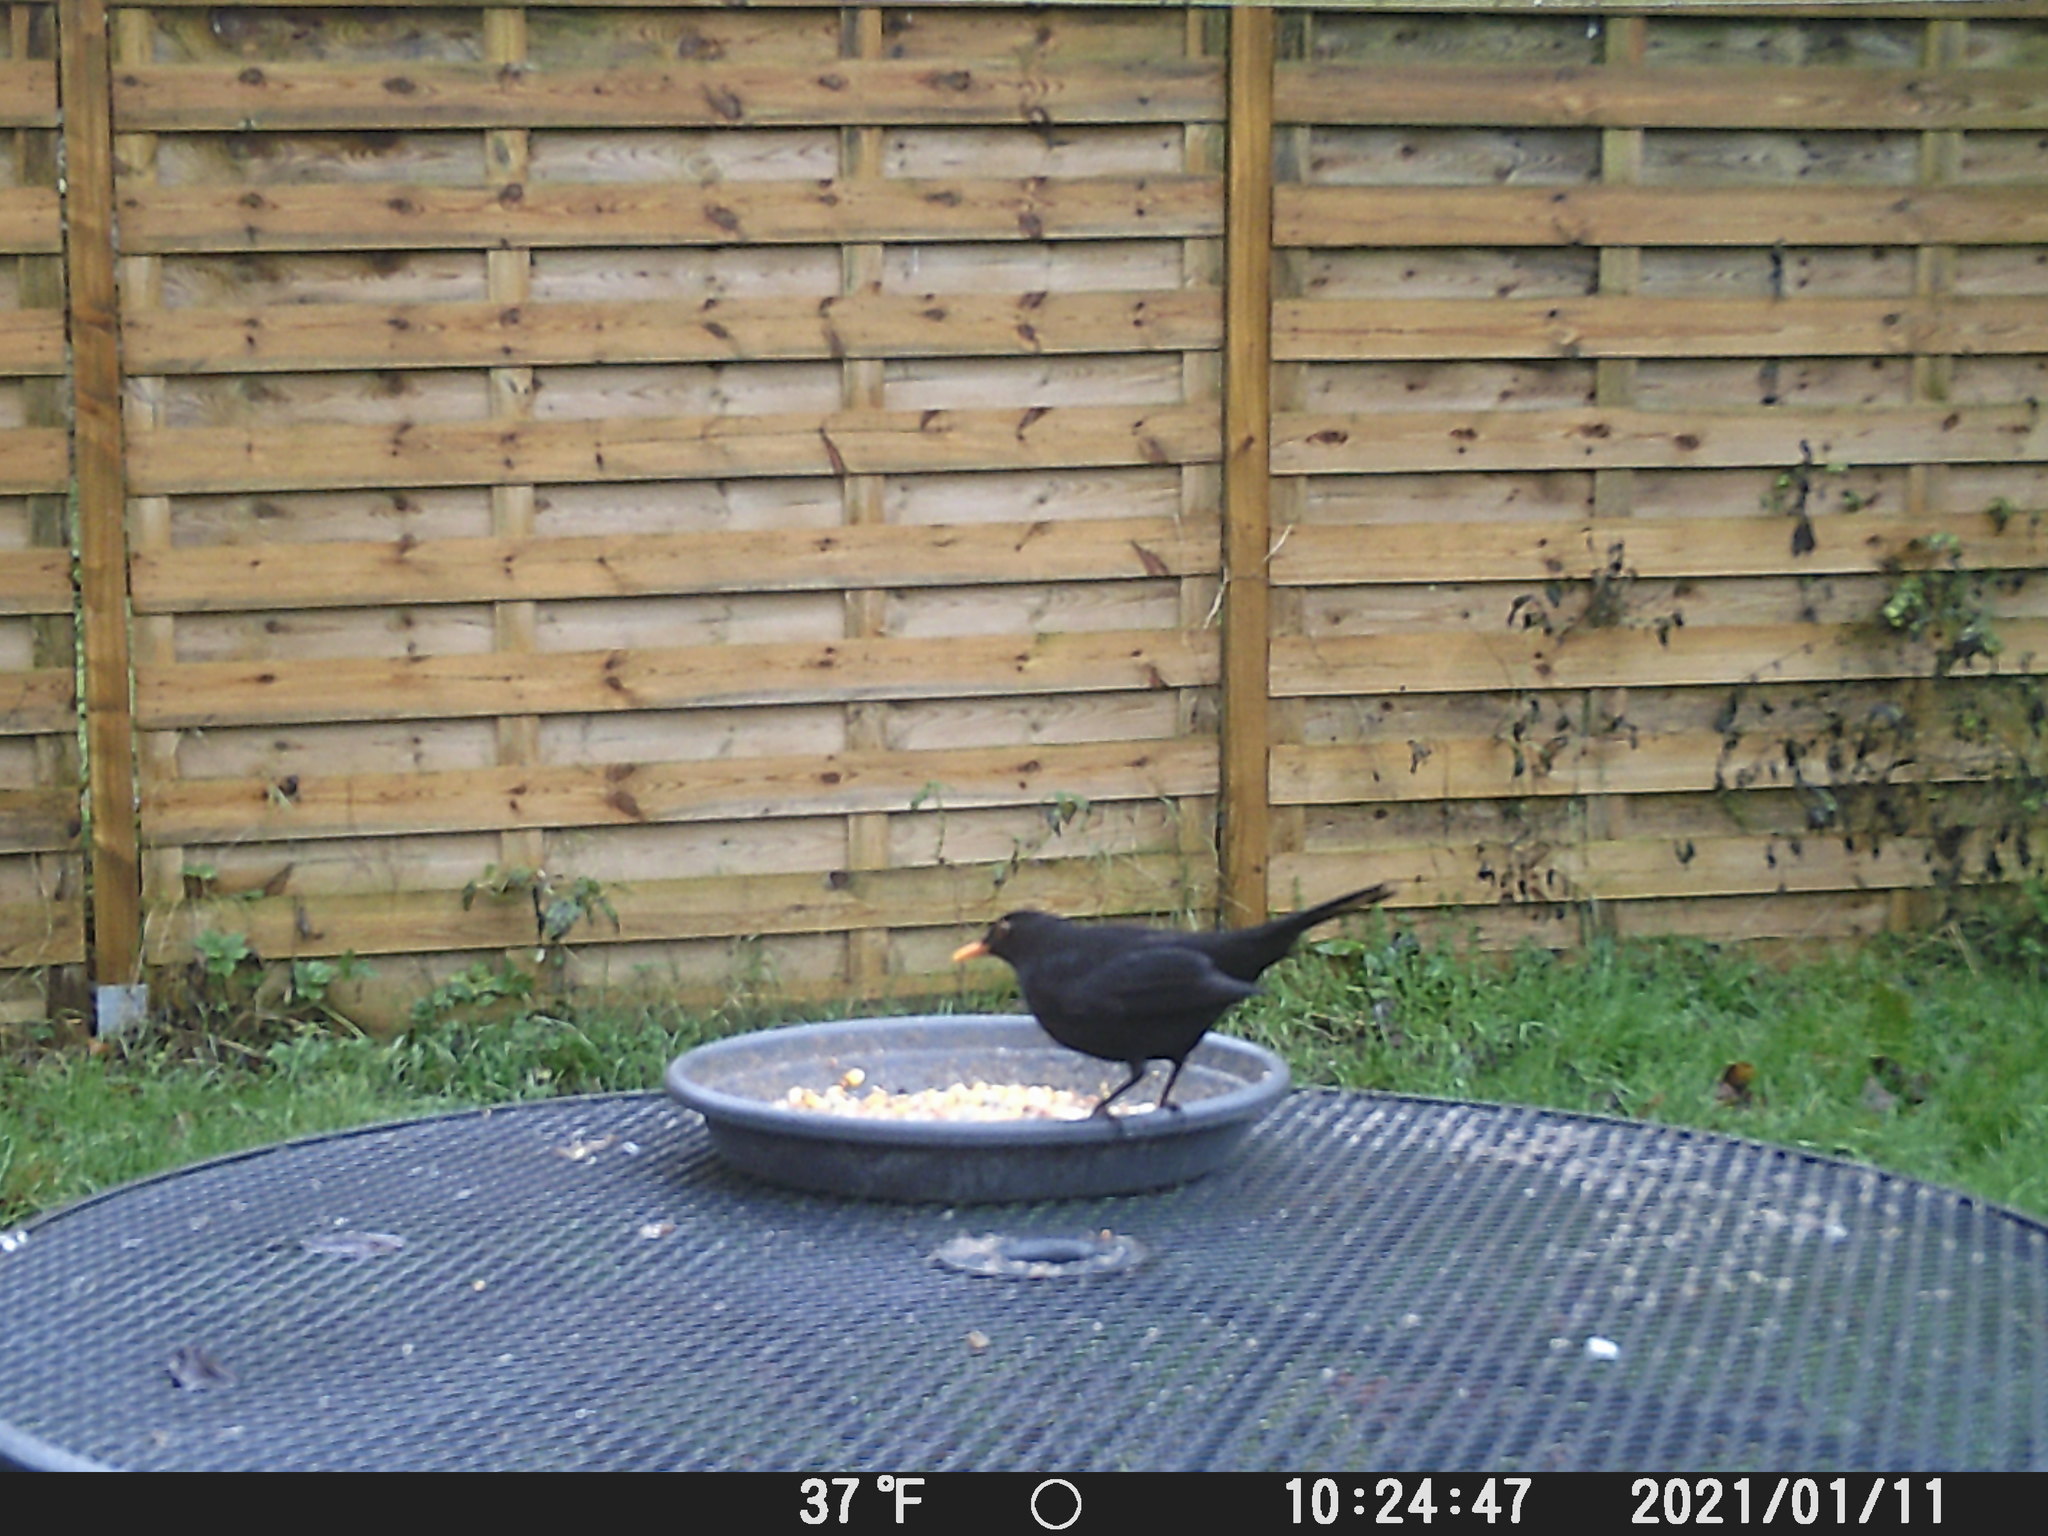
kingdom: Animalia
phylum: Chordata
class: Aves
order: Passeriformes
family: Turdidae
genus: Turdus
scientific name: Turdus merula
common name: Common blackbird
